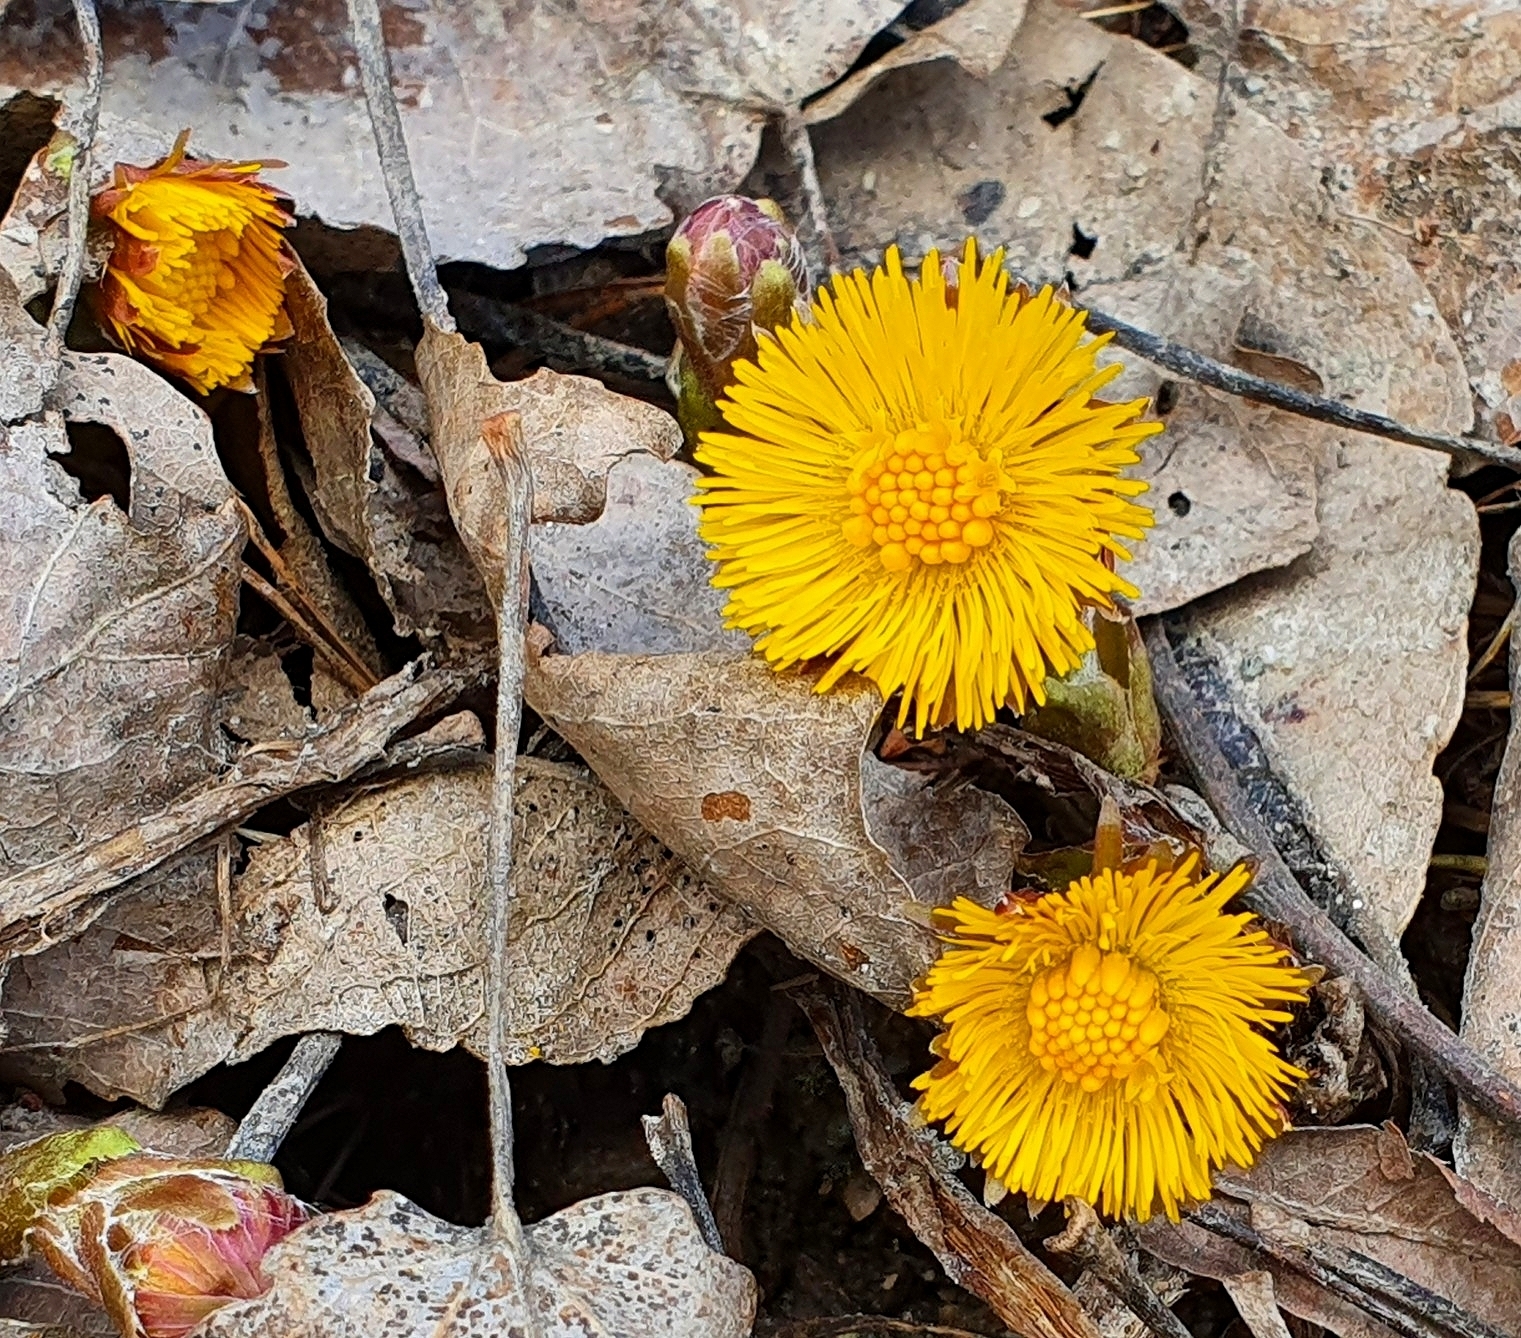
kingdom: Plantae
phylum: Tracheophyta
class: Magnoliopsida
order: Asterales
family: Asteraceae
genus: Tussilago
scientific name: Tussilago farfara
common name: Coltsfoot
